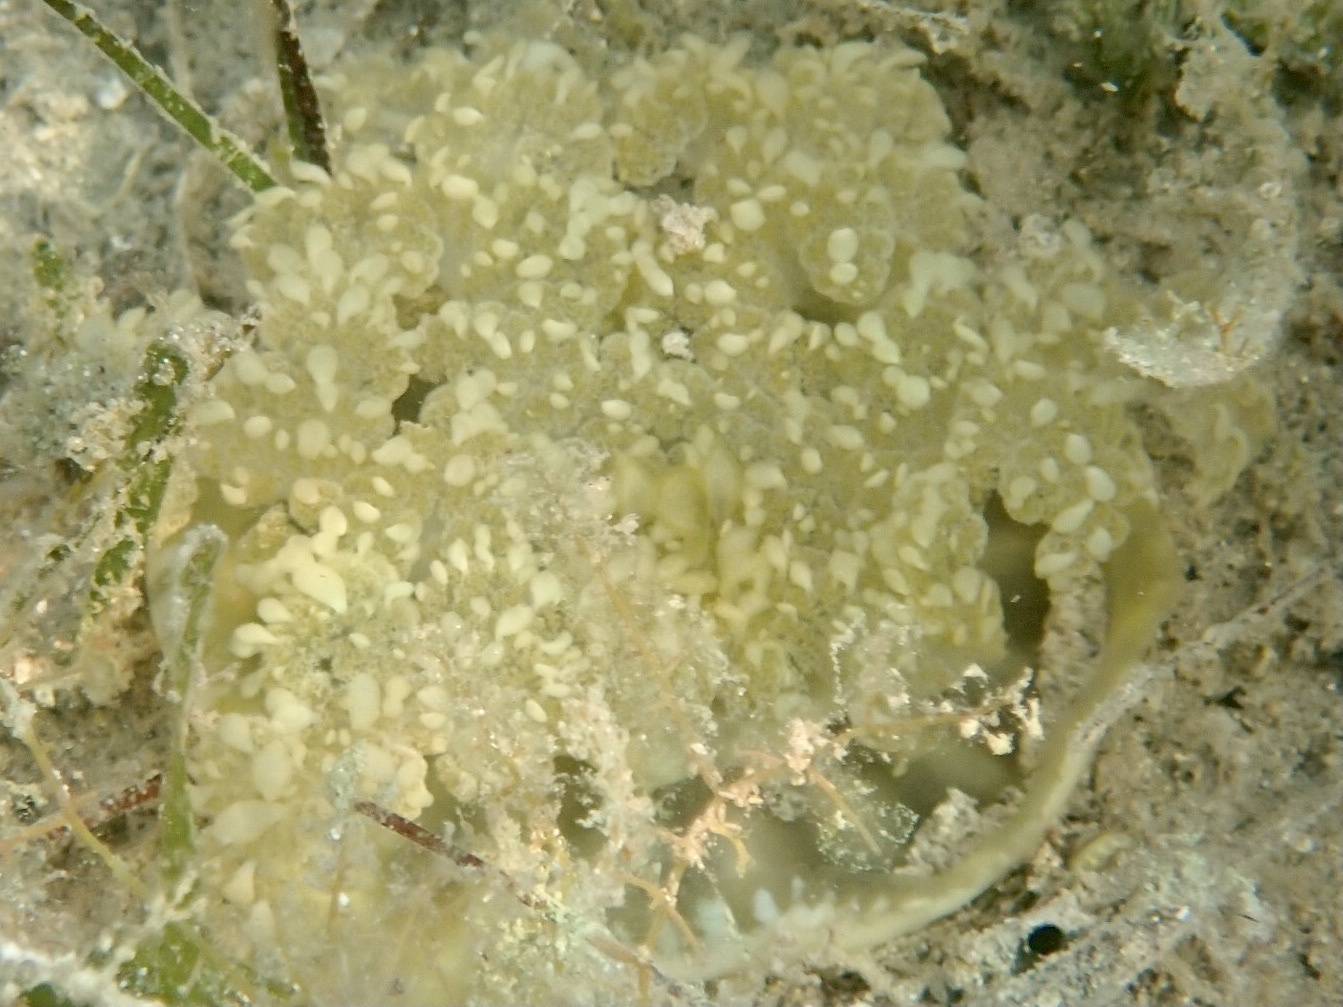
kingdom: Animalia
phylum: Cnidaria
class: Scyphozoa
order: Rhizostomeae
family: Cassiopeidae
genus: Cassiopea
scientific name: Cassiopea andromeda
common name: Upside-down jellyfish
